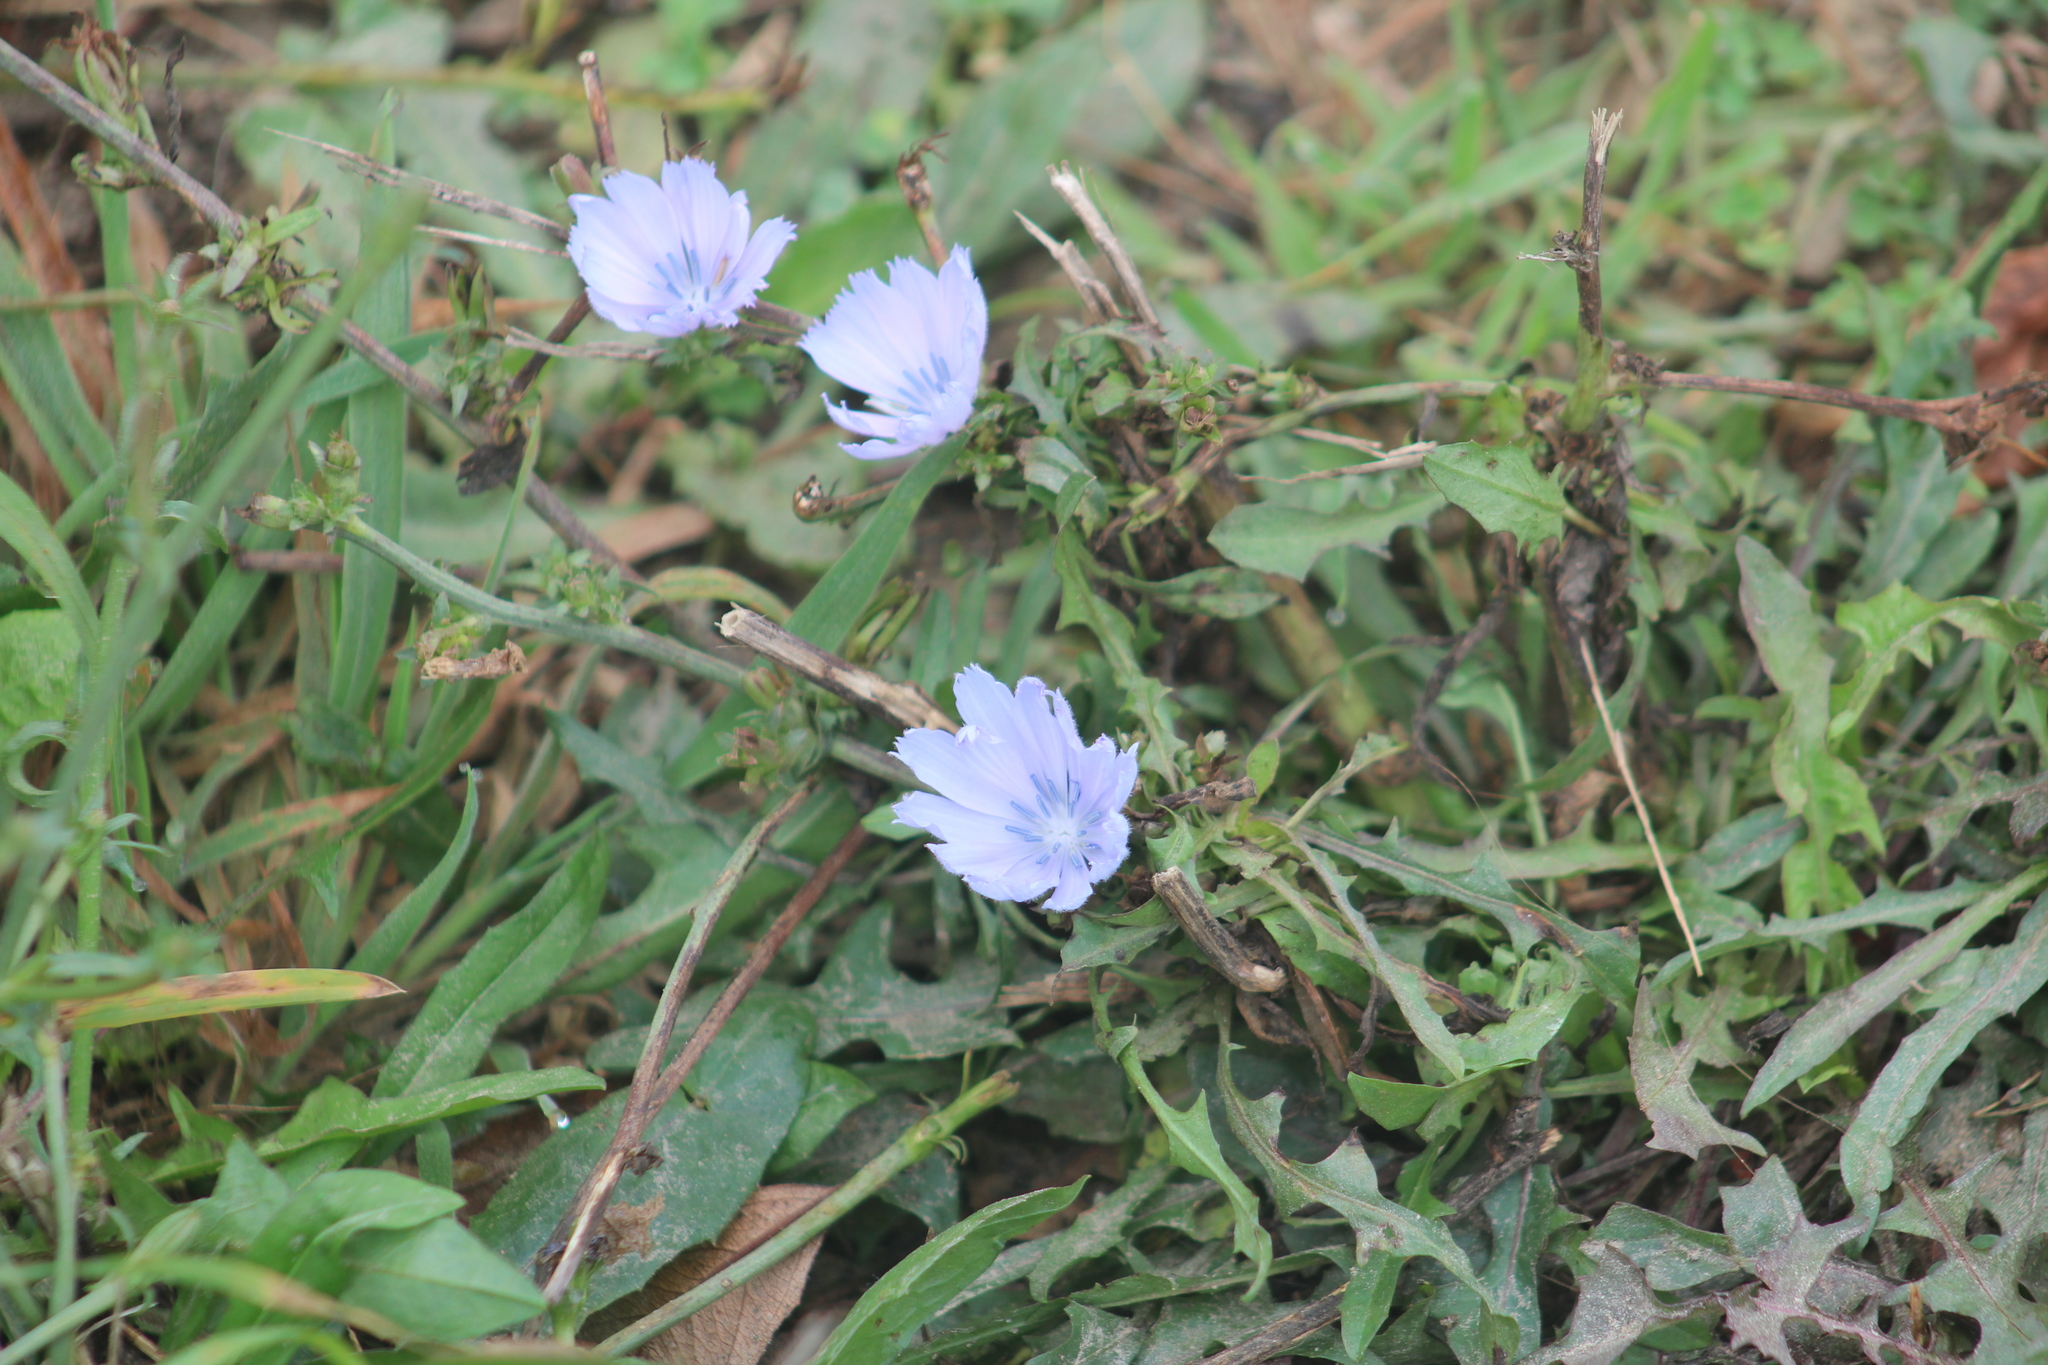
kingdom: Plantae
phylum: Tracheophyta
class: Magnoliopsida
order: Asterales
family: Asteraceae
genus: Cichorium
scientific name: Cichorium intybus
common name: Chicory
